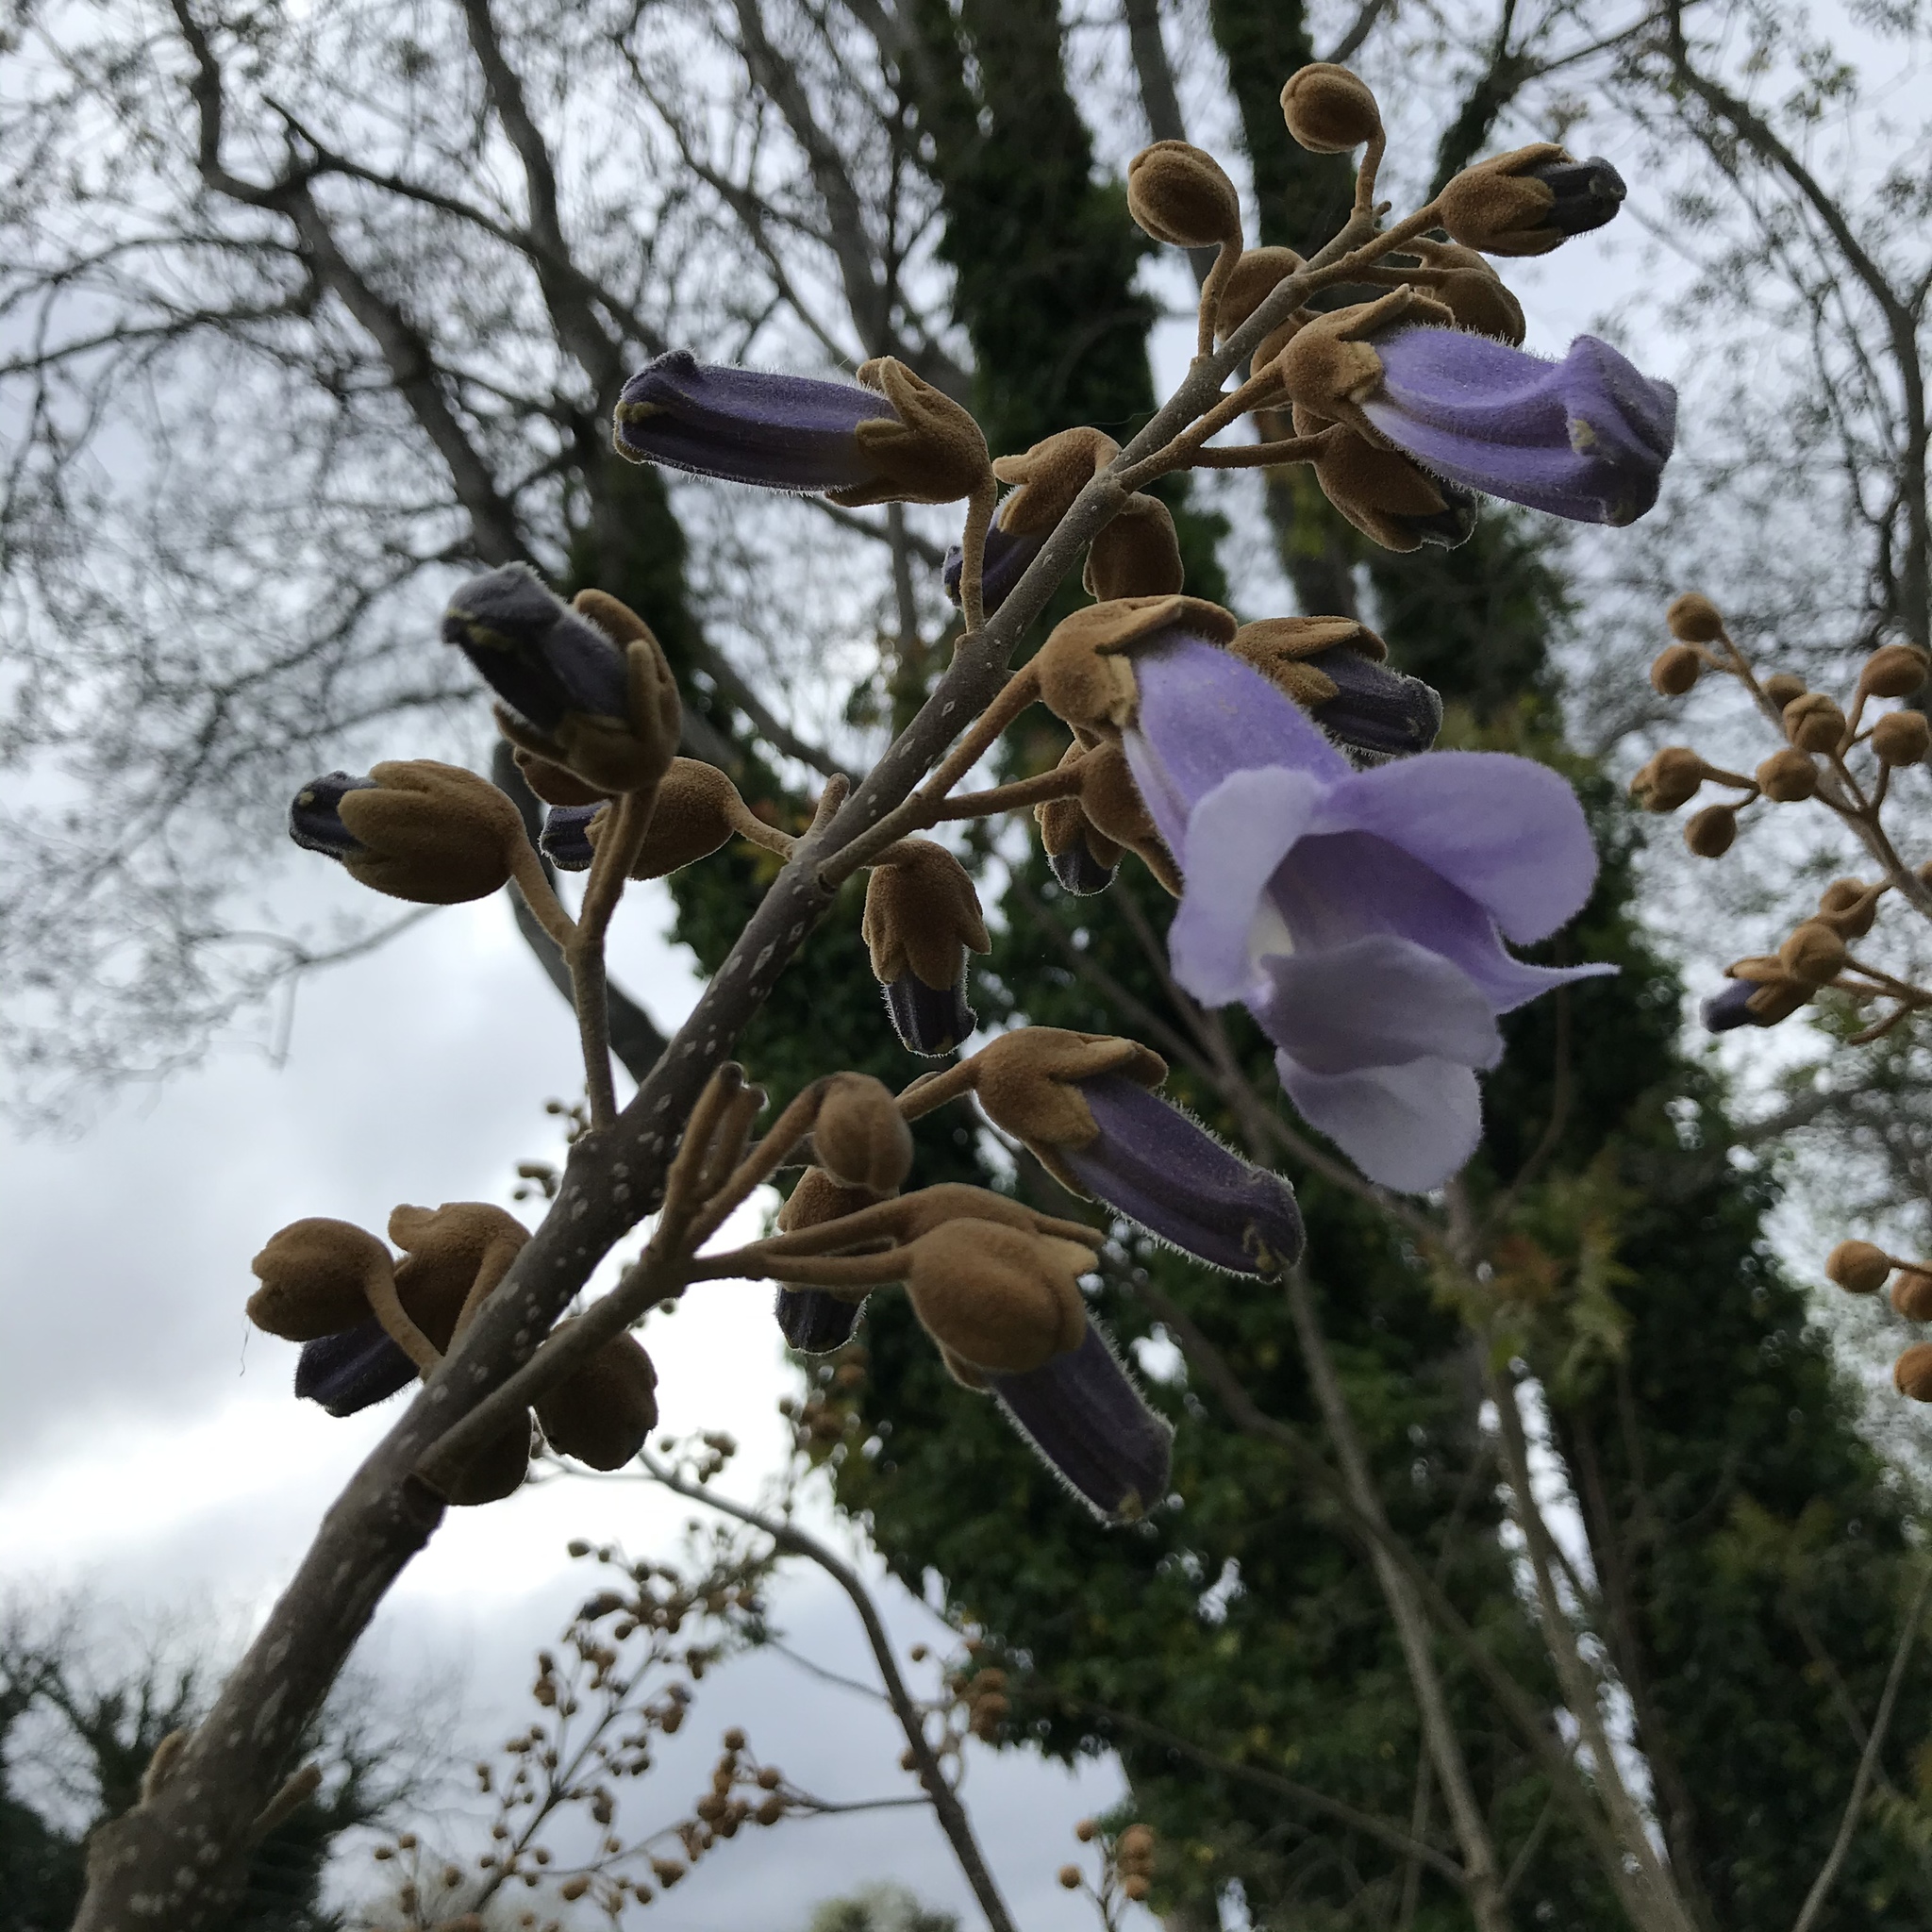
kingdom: Plantae
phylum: Tracheophyta
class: Magnoliopsida
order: Lamiales
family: Paulowniaceae
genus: Paulownia
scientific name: Paulownia tomentosa
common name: Foxglove-tree
